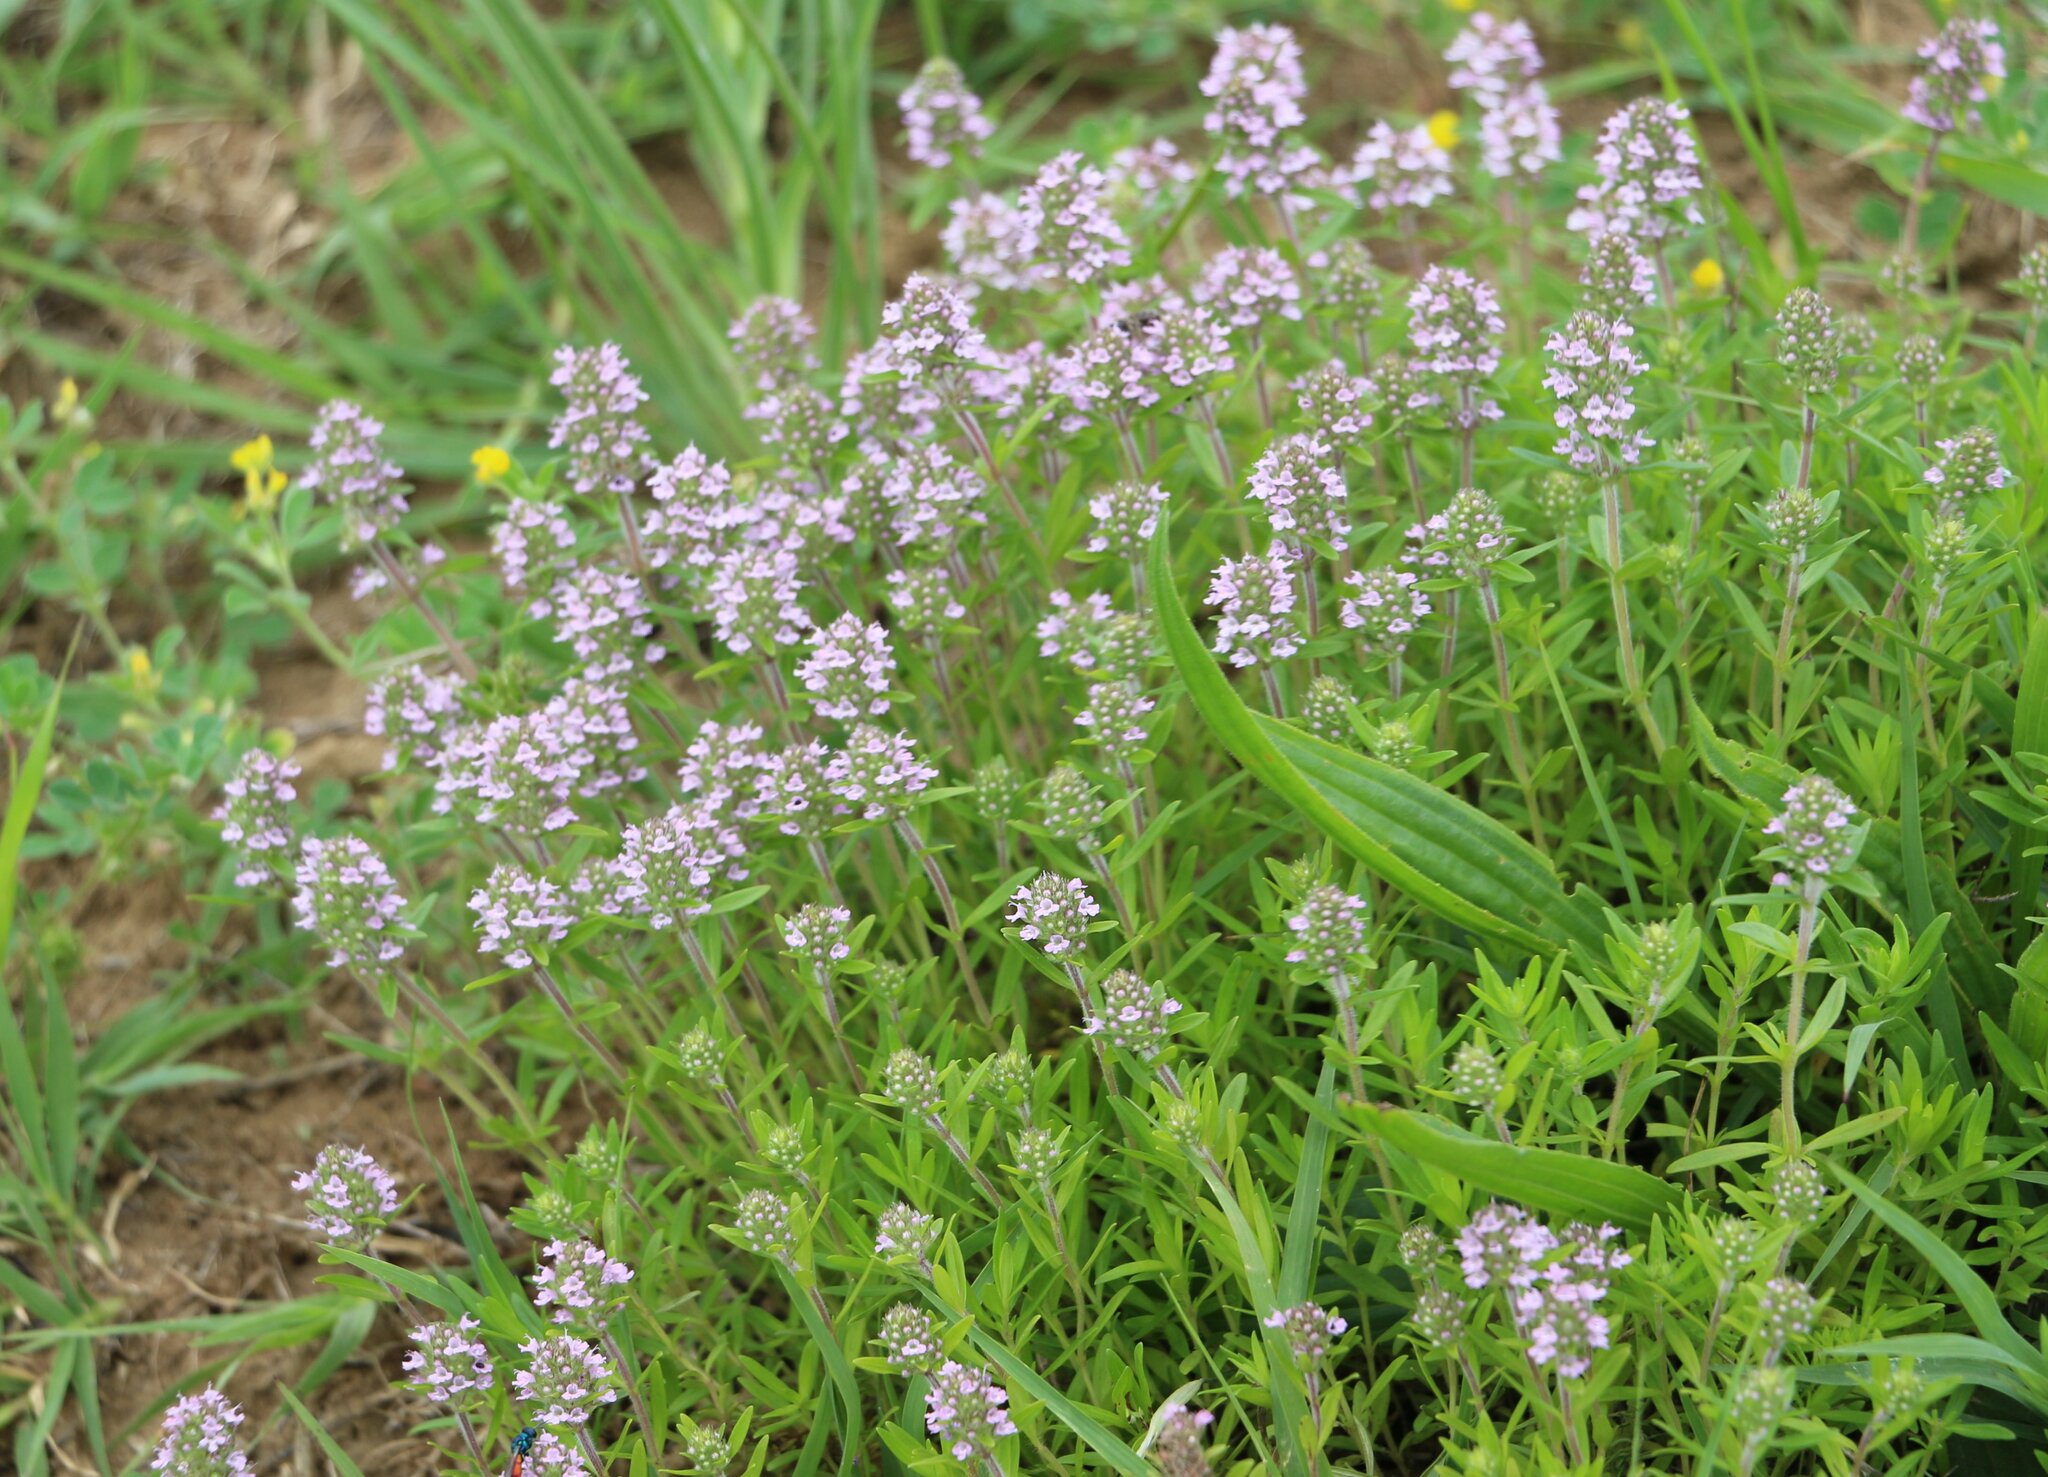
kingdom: Plantae
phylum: Tracheophyta
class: Magnoliopsida
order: Lamiales
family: Lamiaceae
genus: Thymus
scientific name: Thymus pannonicus
